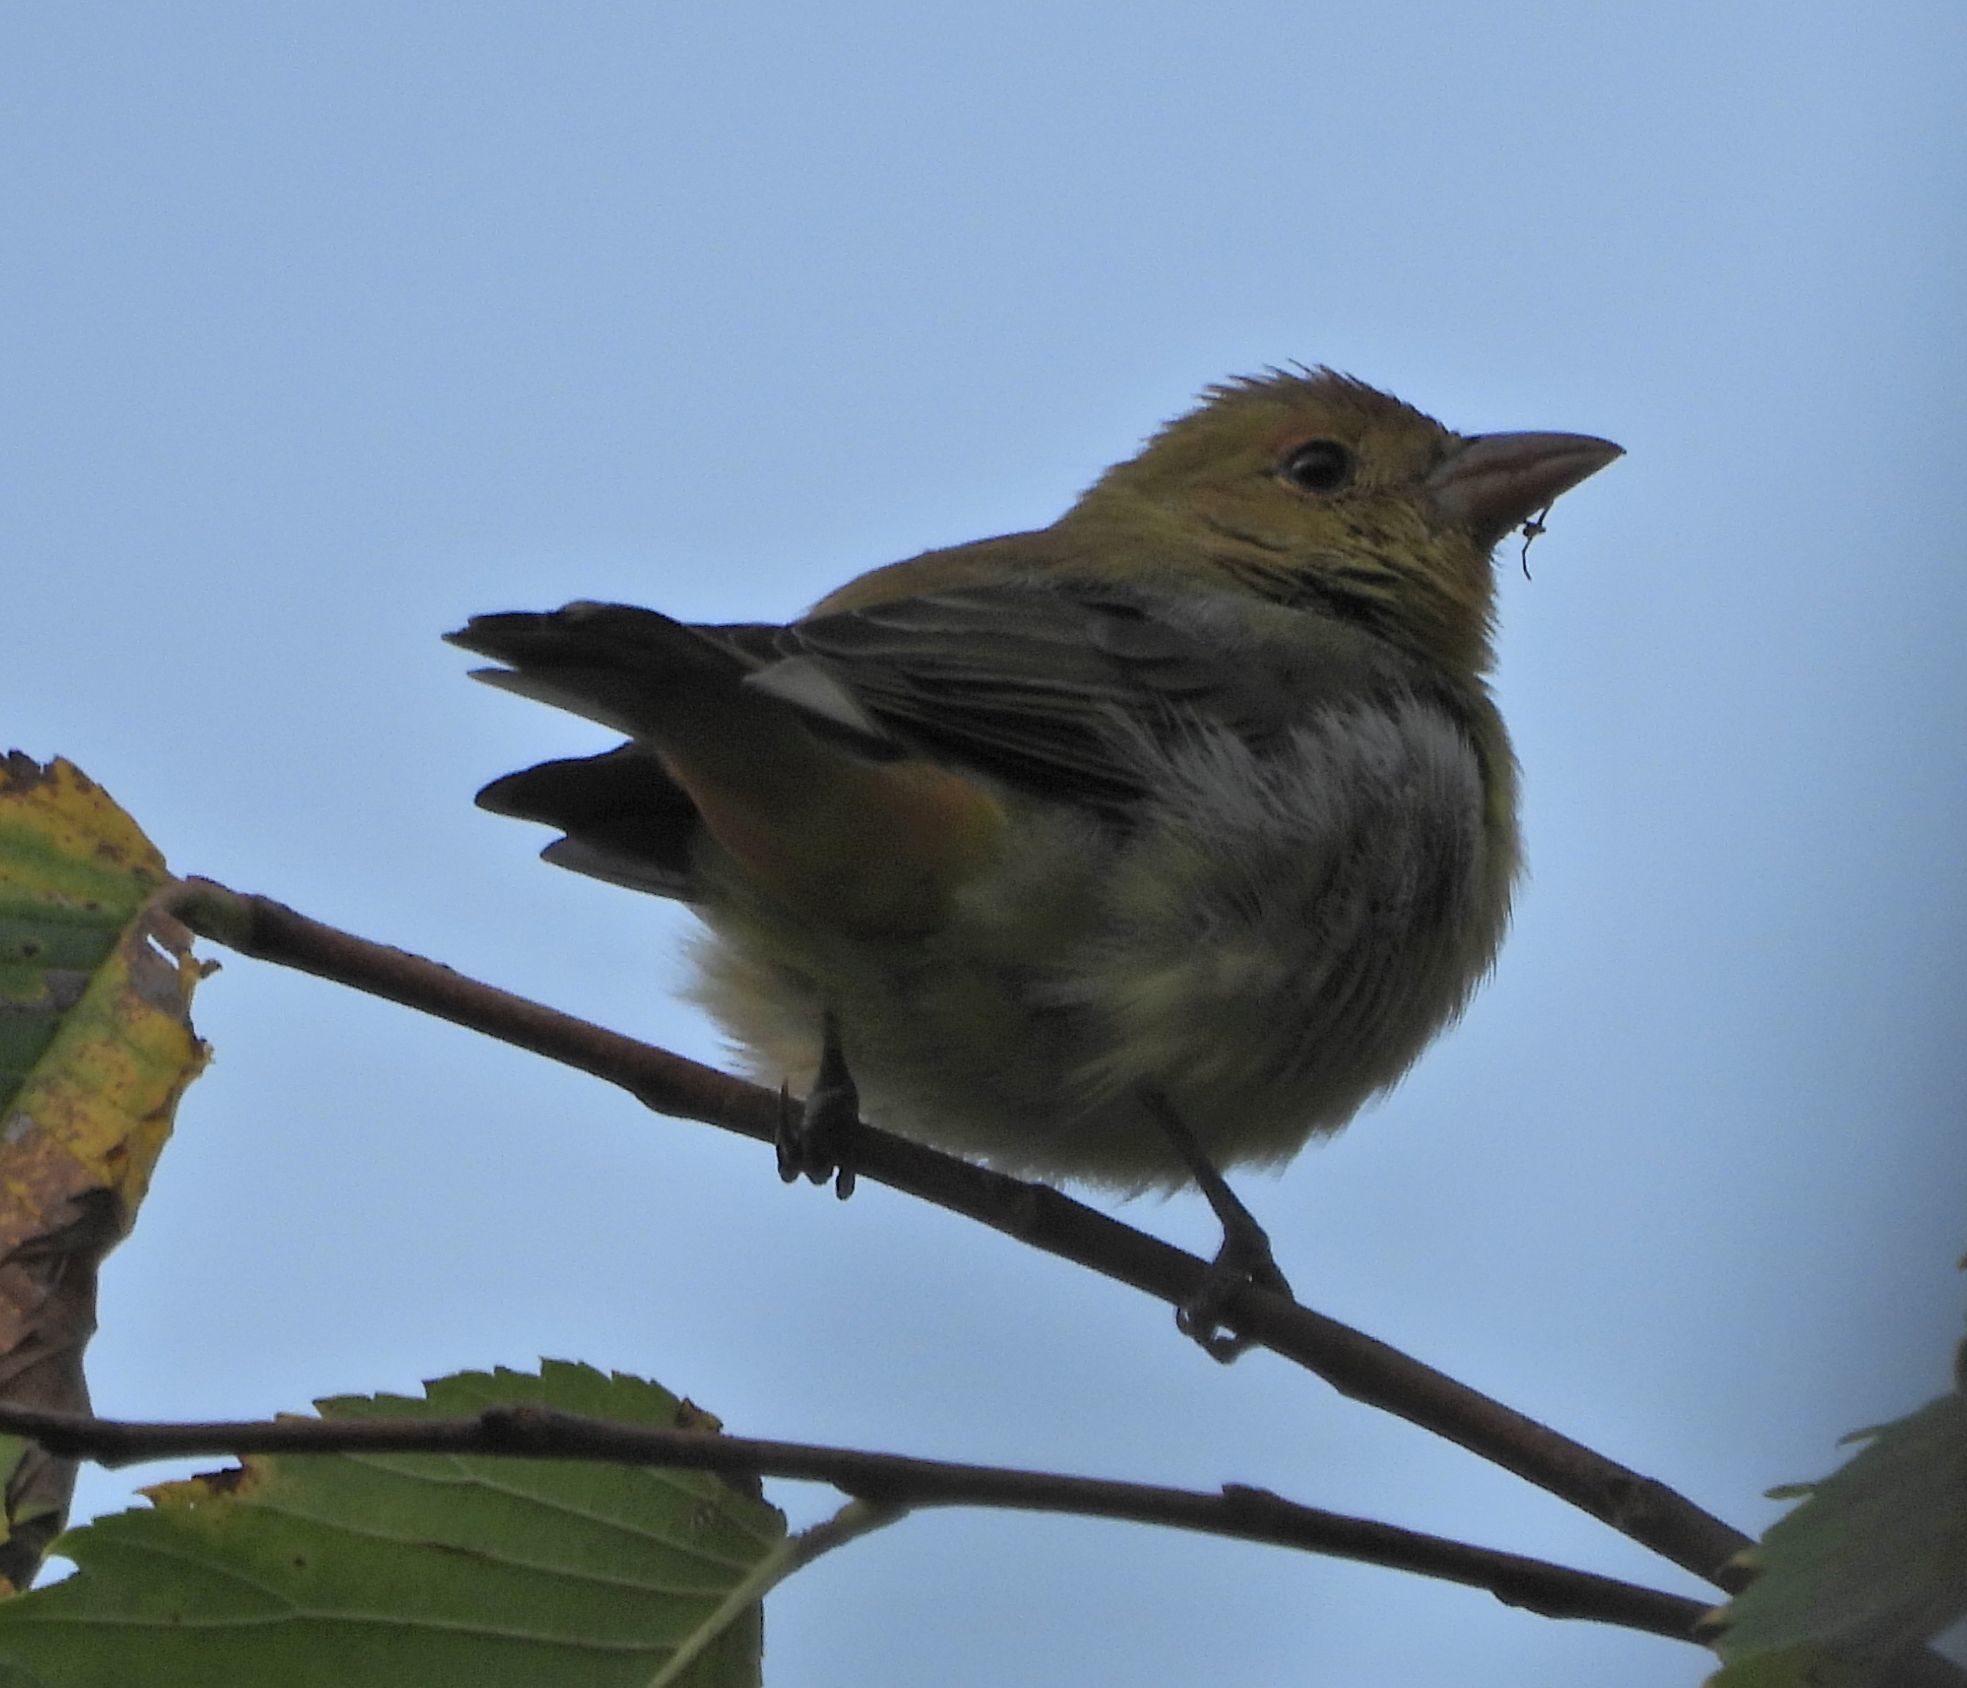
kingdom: Animalia
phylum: Chordata
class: Aves
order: Passeriformes
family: Cardinalidae
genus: Piranga
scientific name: Piranga olivacea
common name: Scarlet tanager
